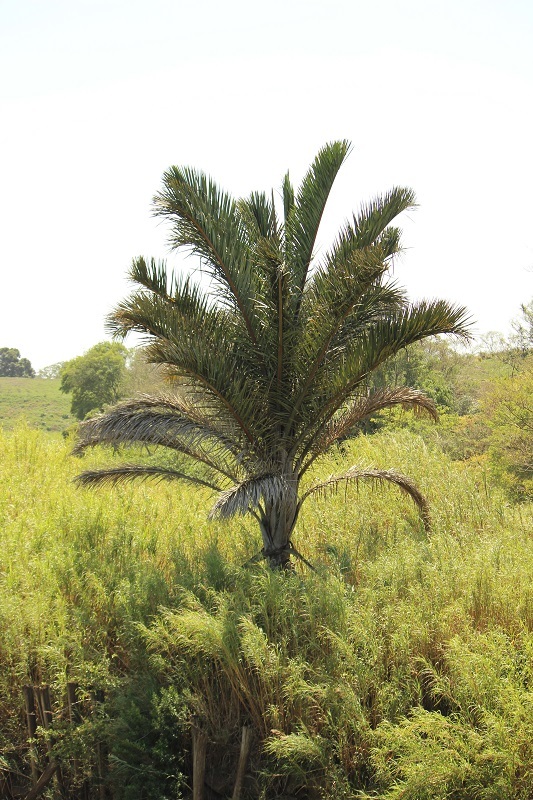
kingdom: Plantae
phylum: Tracheophyta
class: Liliopsida
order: Arecales
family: Arecaceae
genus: Raphia
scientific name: Raphia australis
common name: Giant palm
